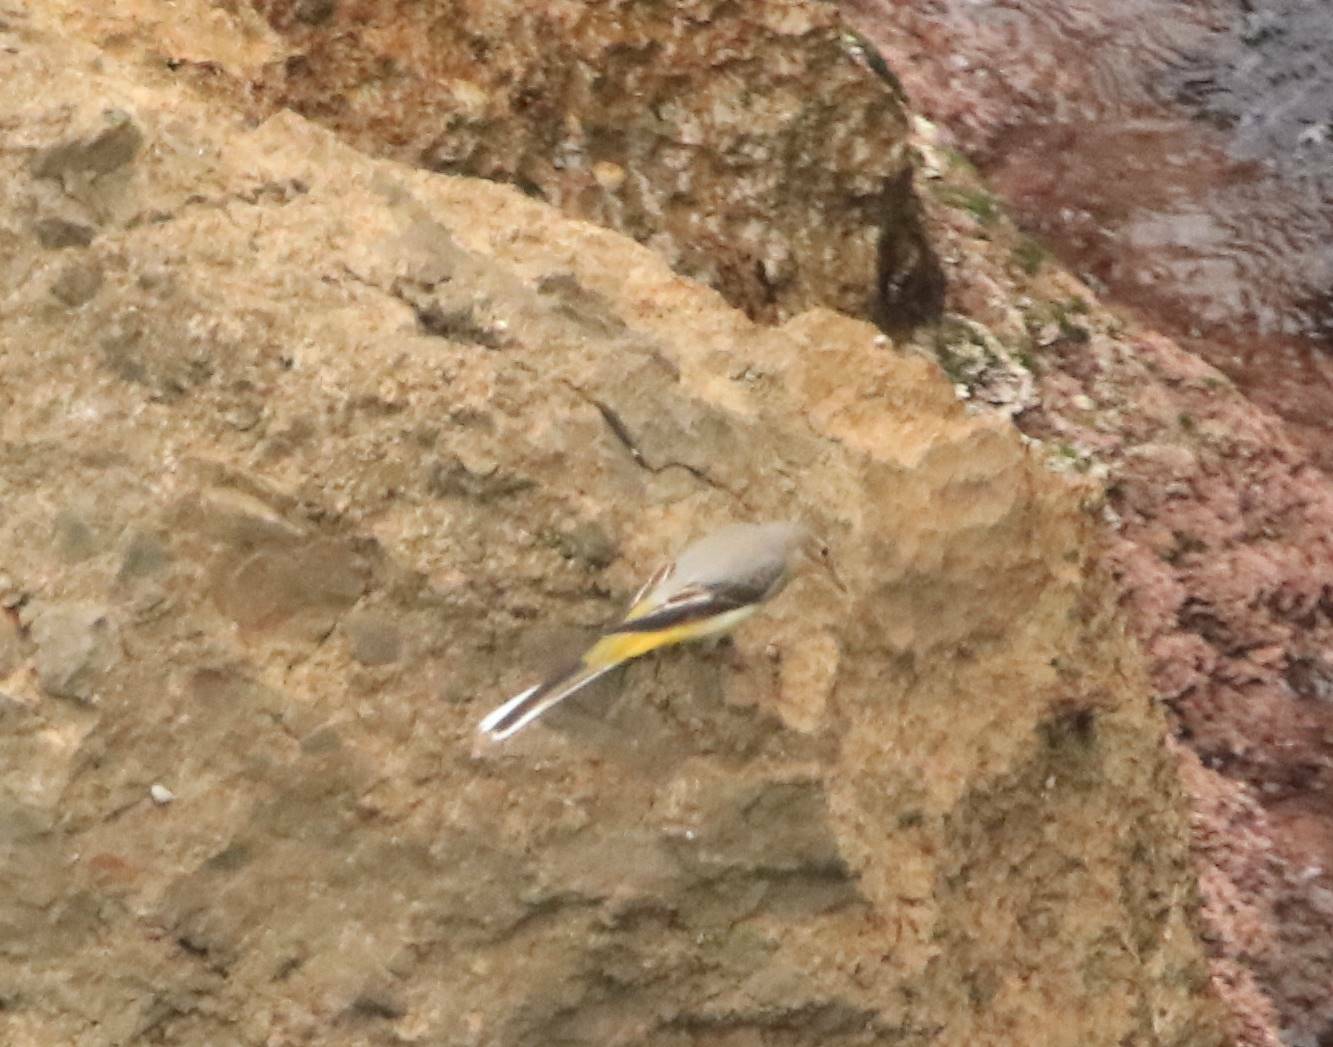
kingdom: Animalia
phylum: Chordata
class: Aves
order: Passeriformes
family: Motacillidae
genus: Motacilla
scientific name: Motacilla cinerea
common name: Grey wagtail
